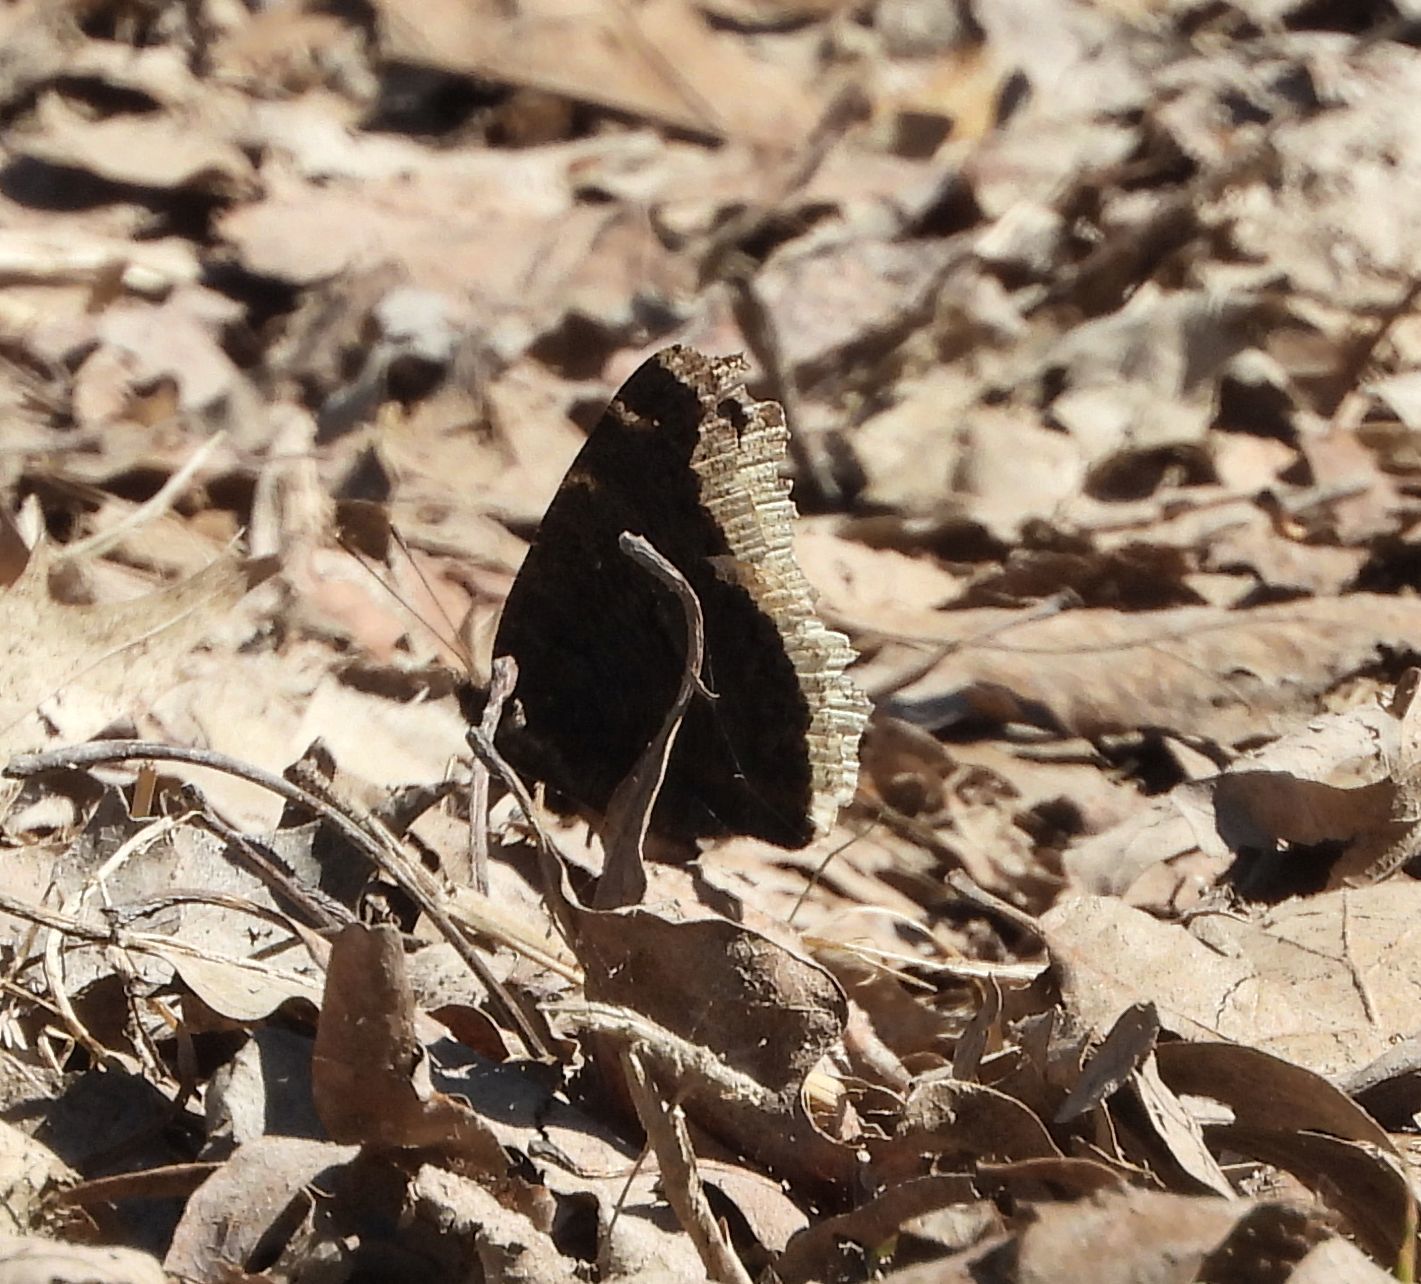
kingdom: Animalia
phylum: Arthropoda
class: Insecta
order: Lepidoptera
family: Nymphalidae
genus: Nymphalis
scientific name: Nymphalis antiopa
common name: Camberwell beauty
